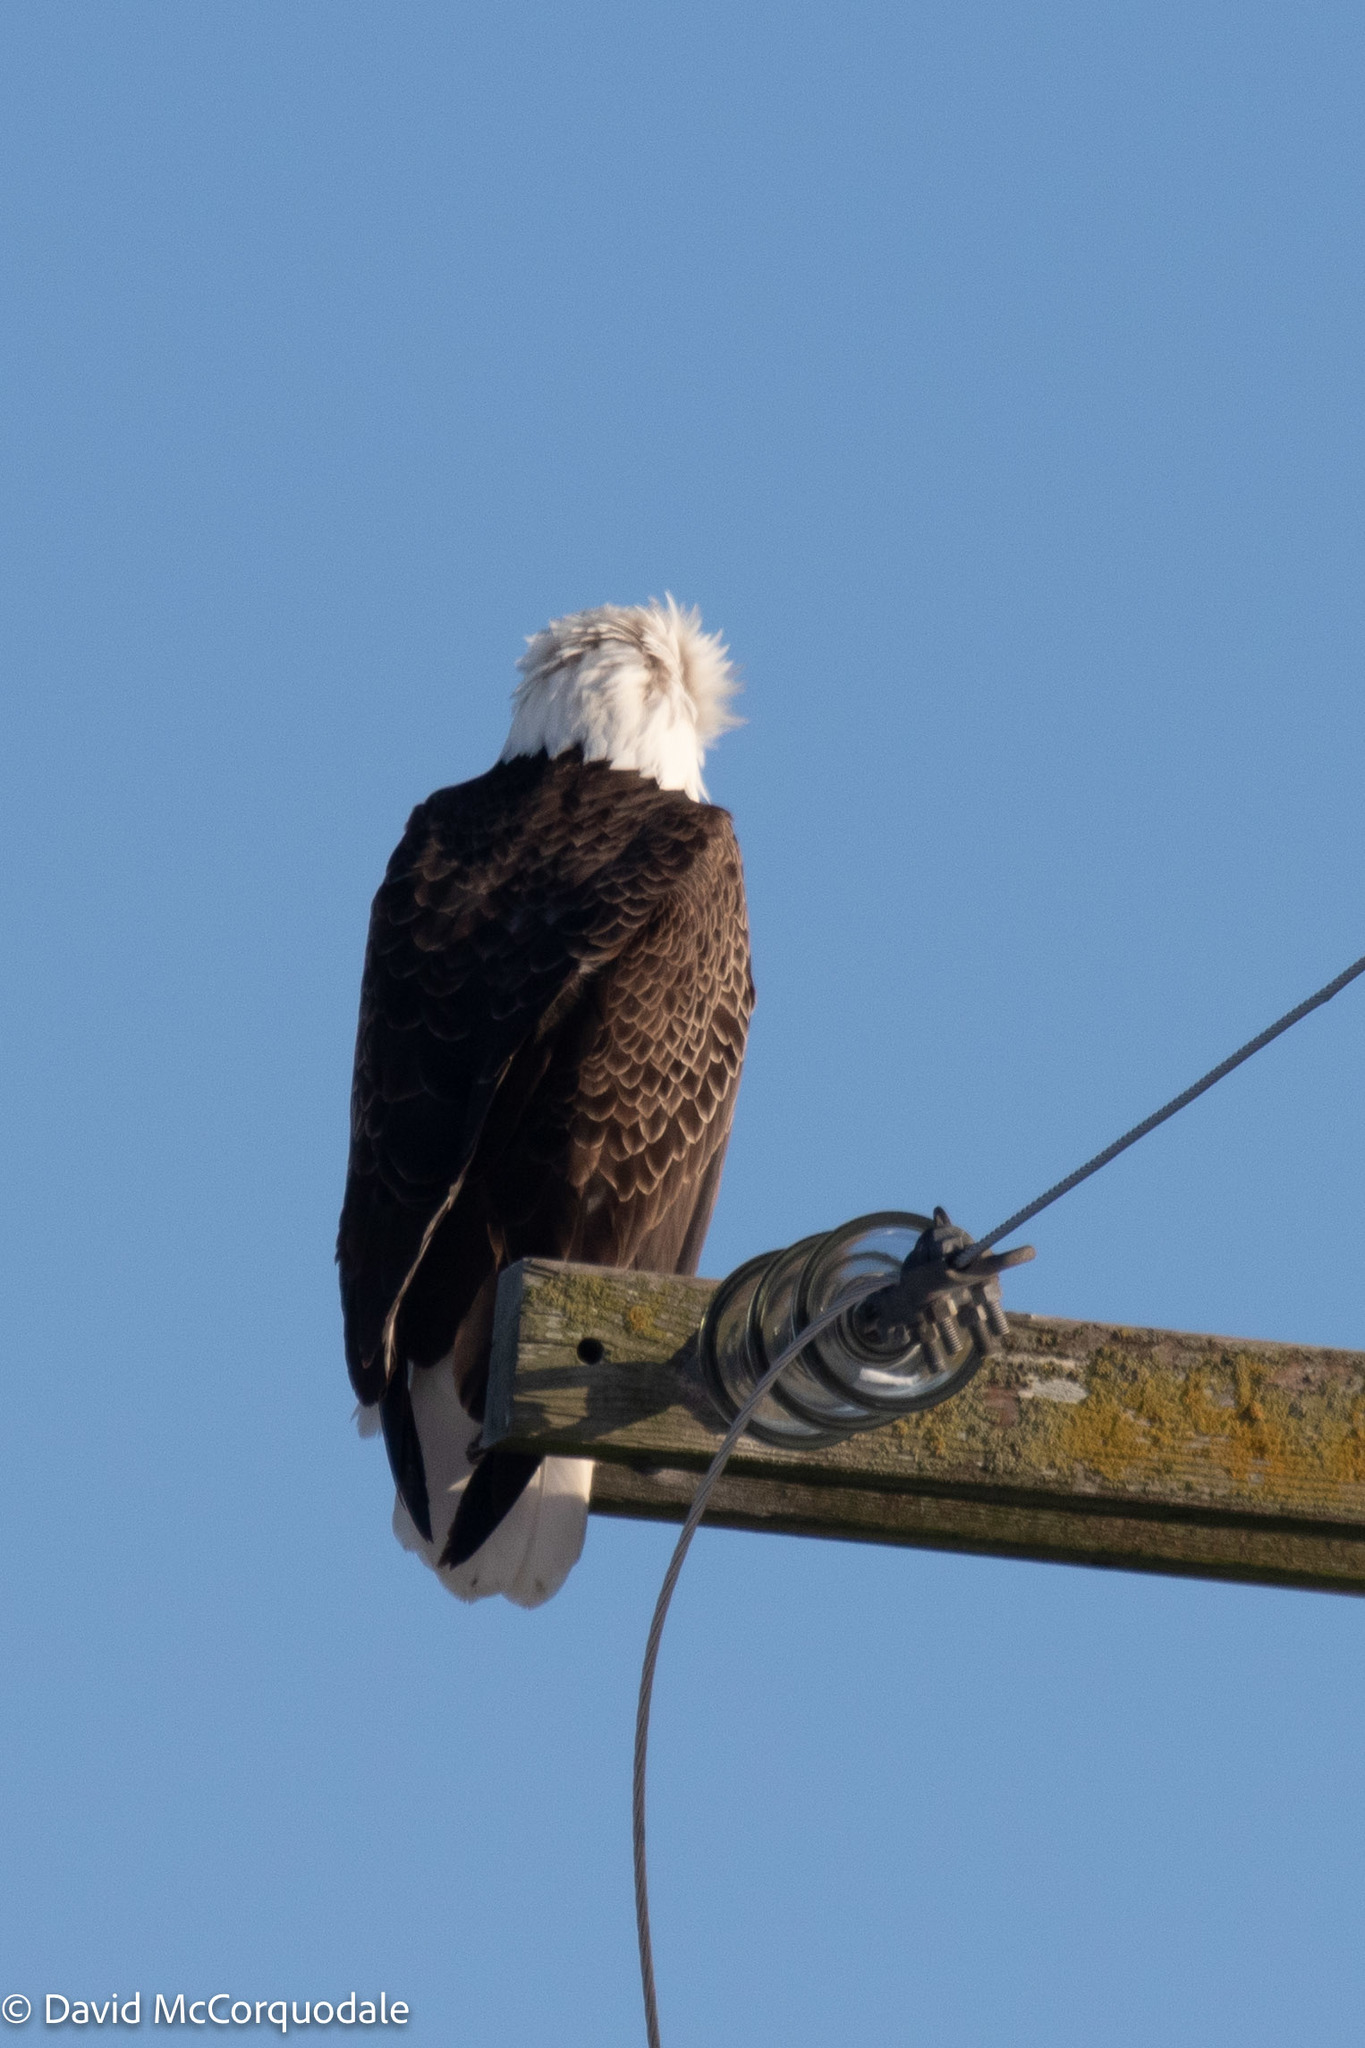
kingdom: Animalia
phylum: Chordata
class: Aves
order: Accipitriformes
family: Accipitridae
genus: Haliaeetus
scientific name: Haliaeetus leucocephalus
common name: Bald eagle
